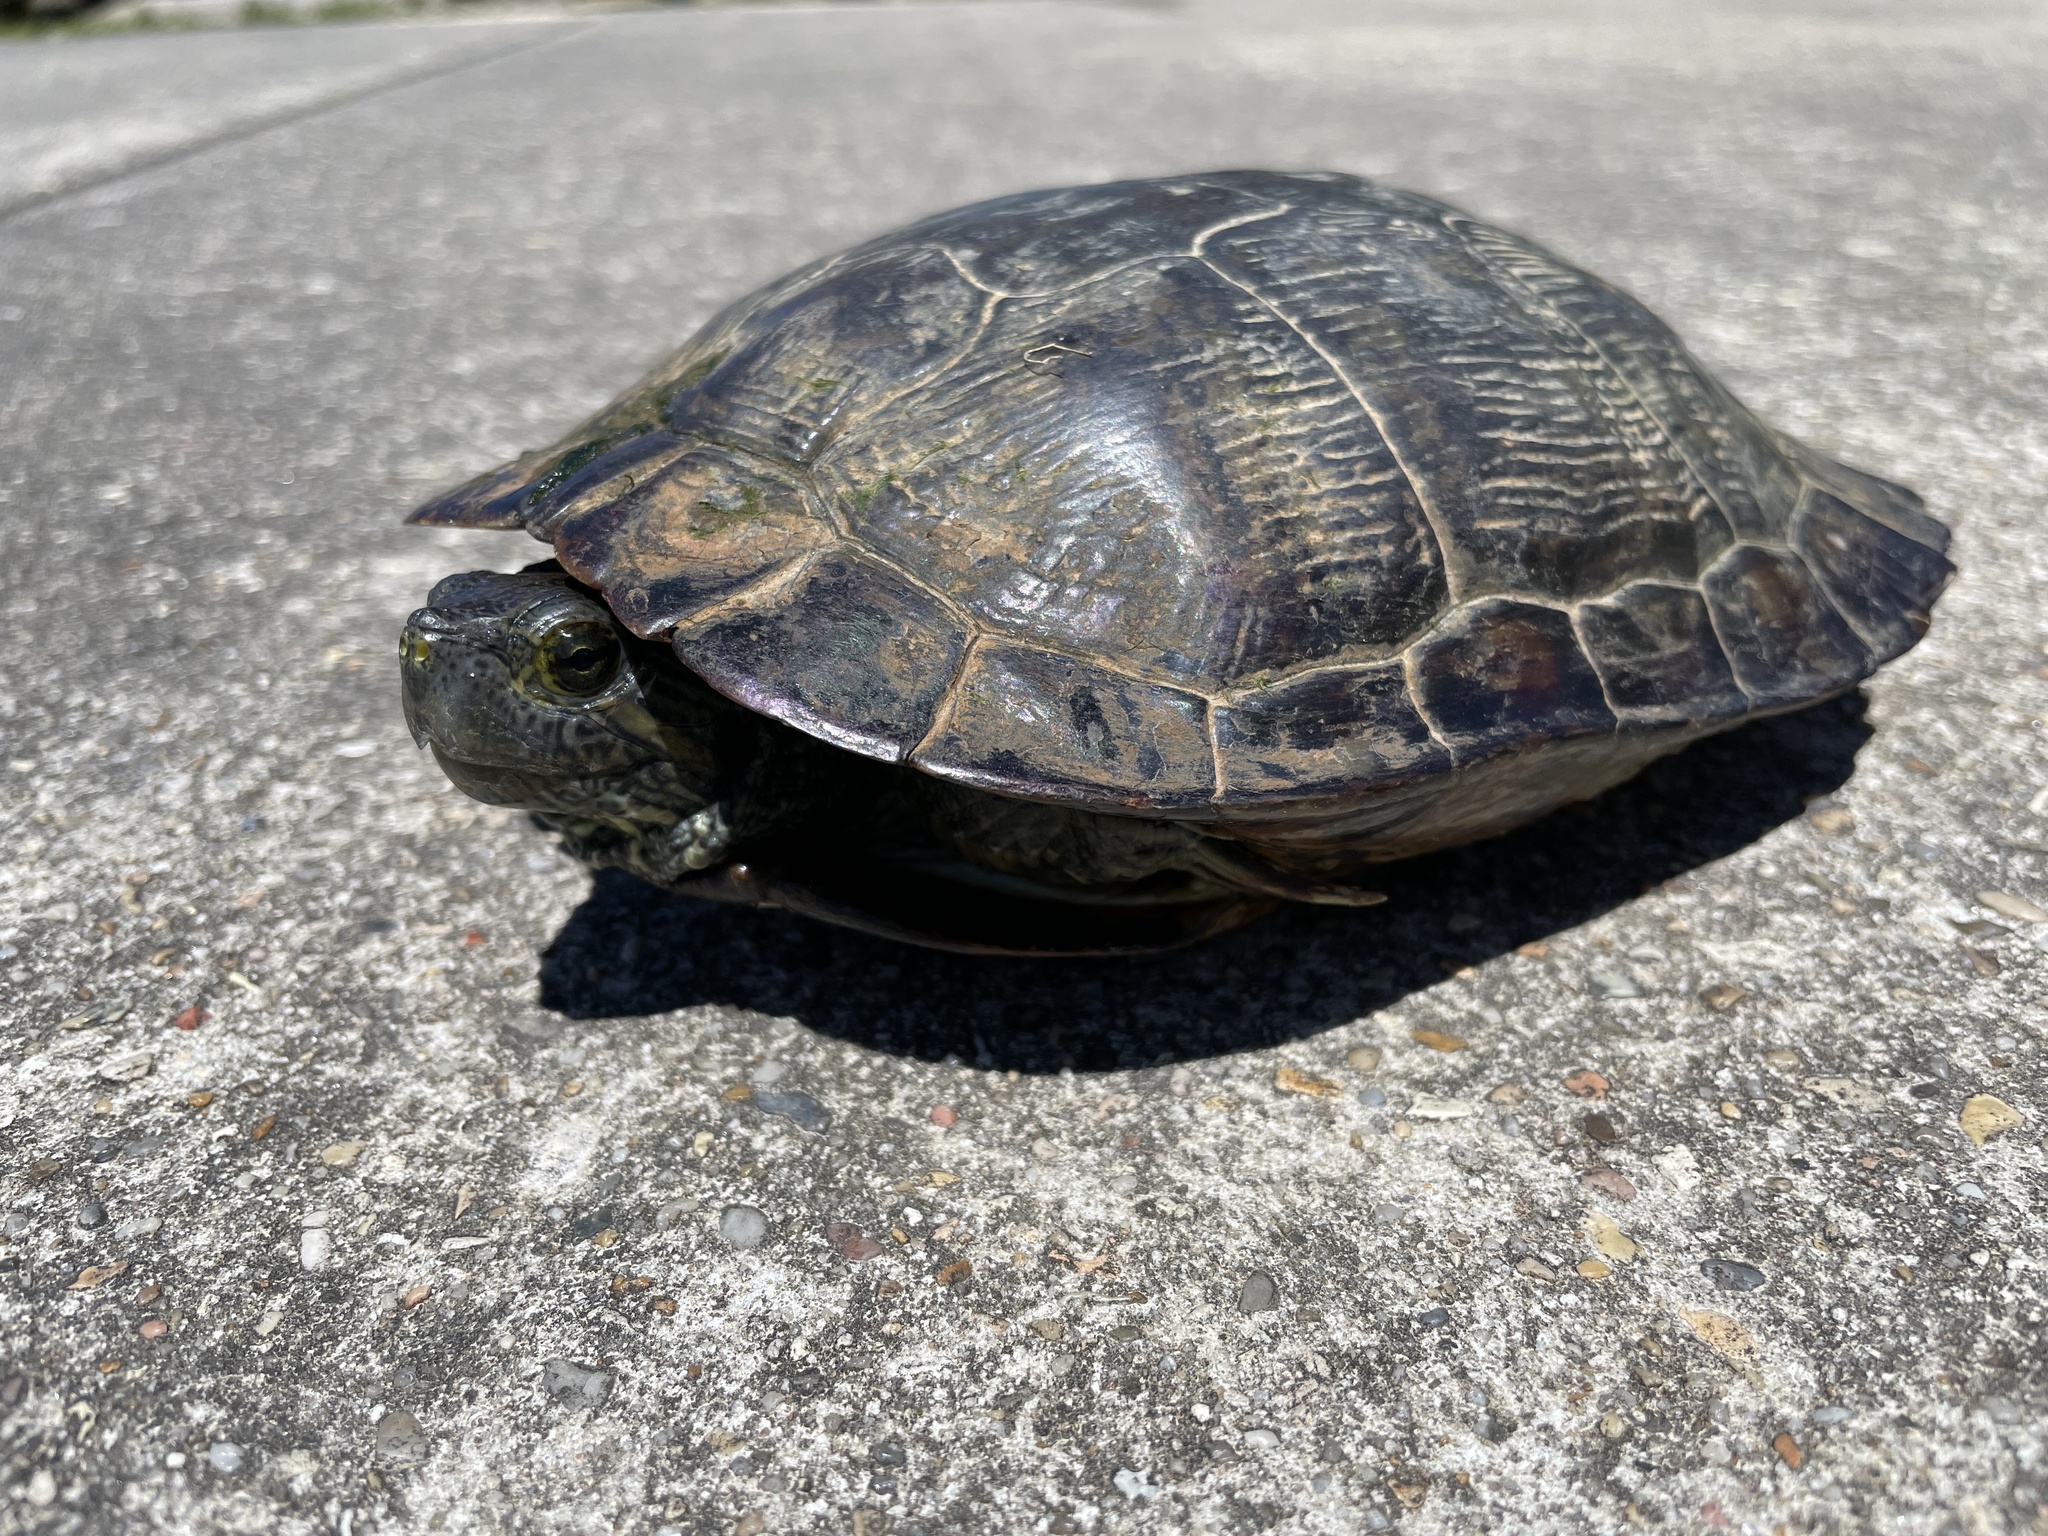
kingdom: Animalia
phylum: Chordata
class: Testudines
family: Emydidae
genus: Trachemys
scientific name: Trachemys scripta
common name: Slider
